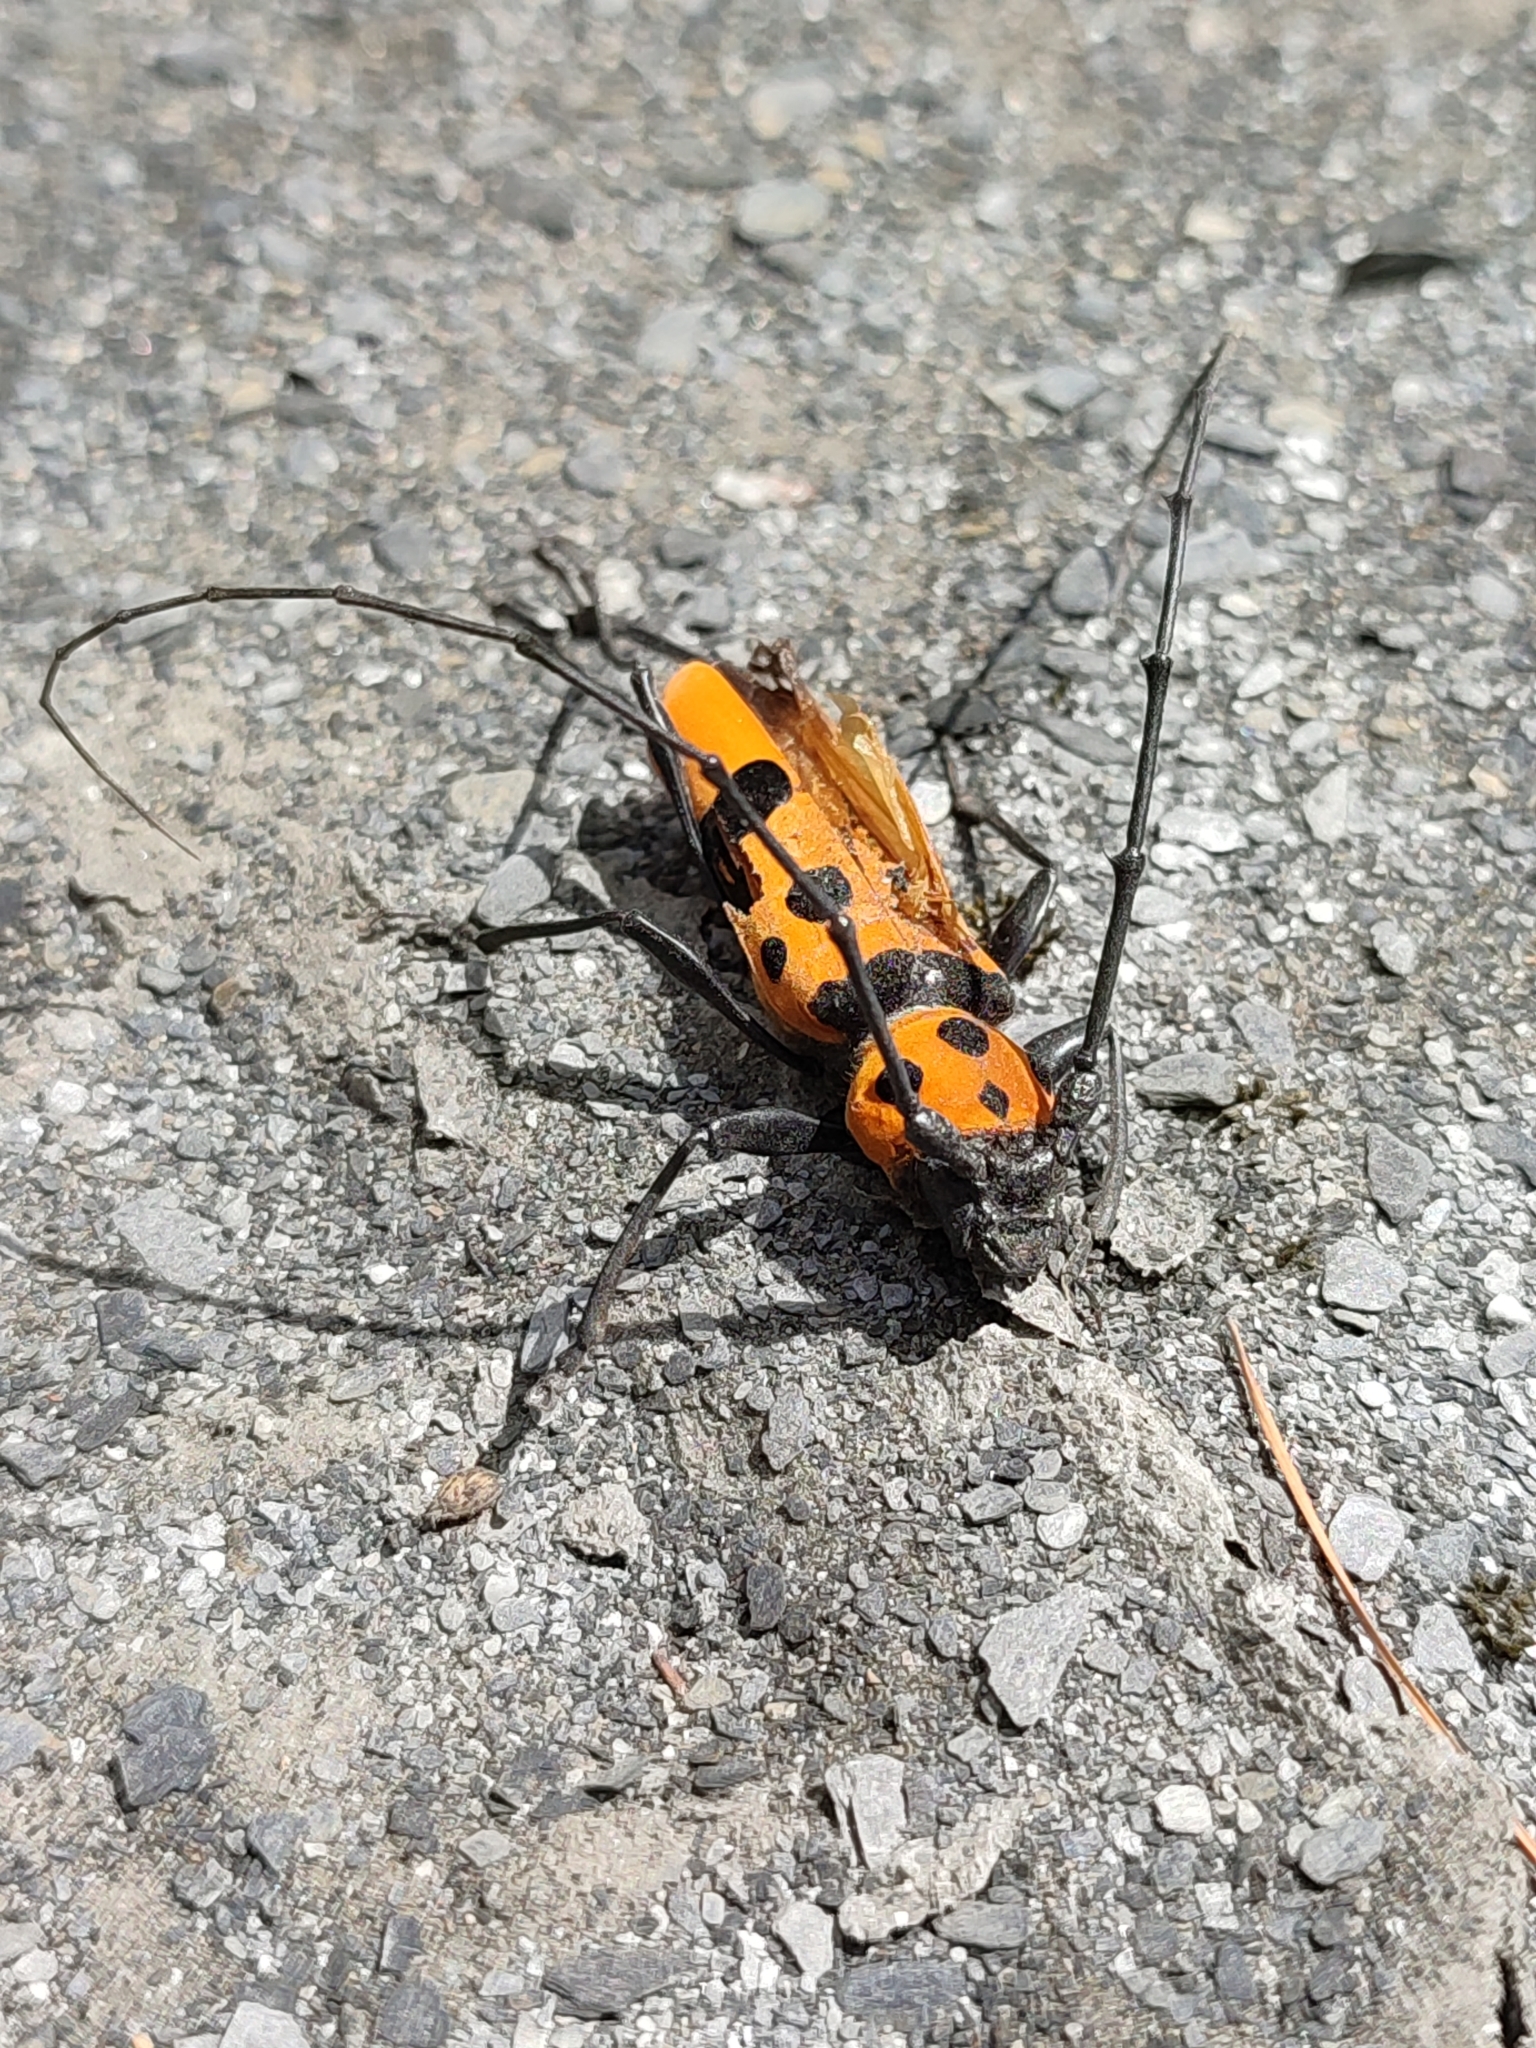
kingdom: Animalia
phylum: Arthropoda
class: Insecta
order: Coleoptera
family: Cerambycidae
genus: Rosalia
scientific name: Rosalia formosa
